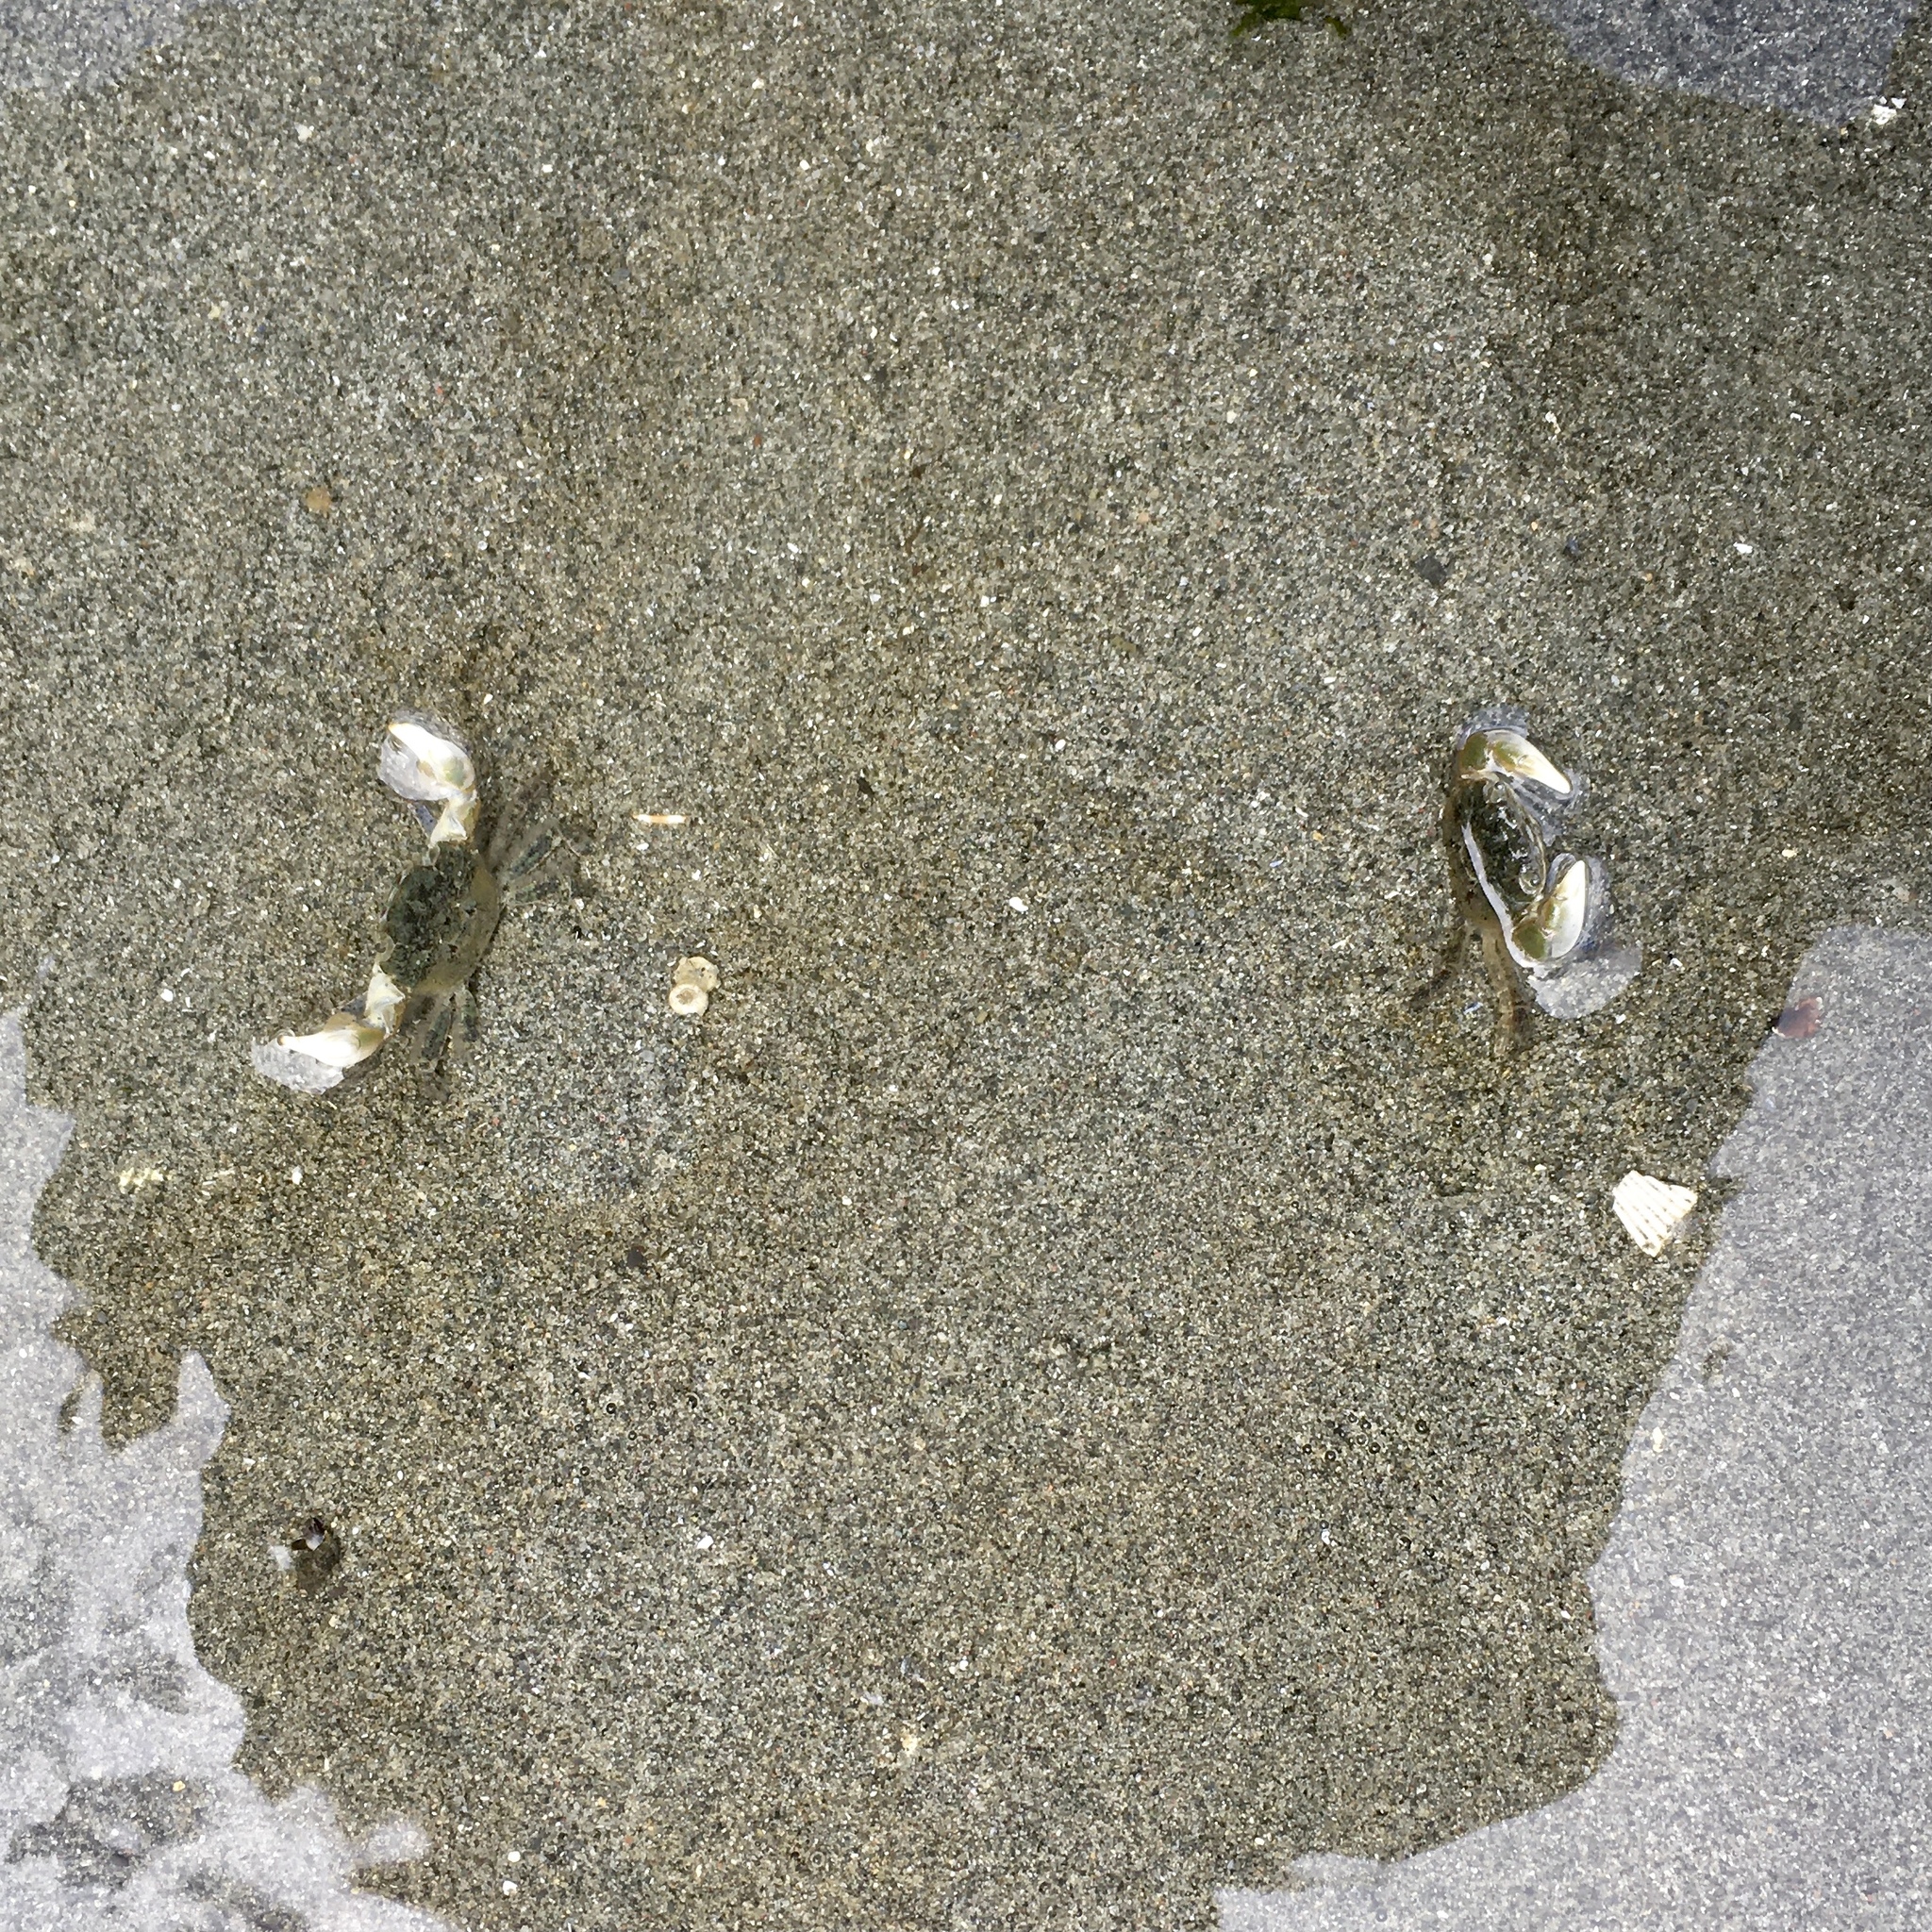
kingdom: Animalia
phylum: Arthropoda
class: Malacostraca
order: Decapoda
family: Varunidae
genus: Hemigrapsus
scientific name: Hemigrapsus oregonensis
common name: Yellow shore crab
